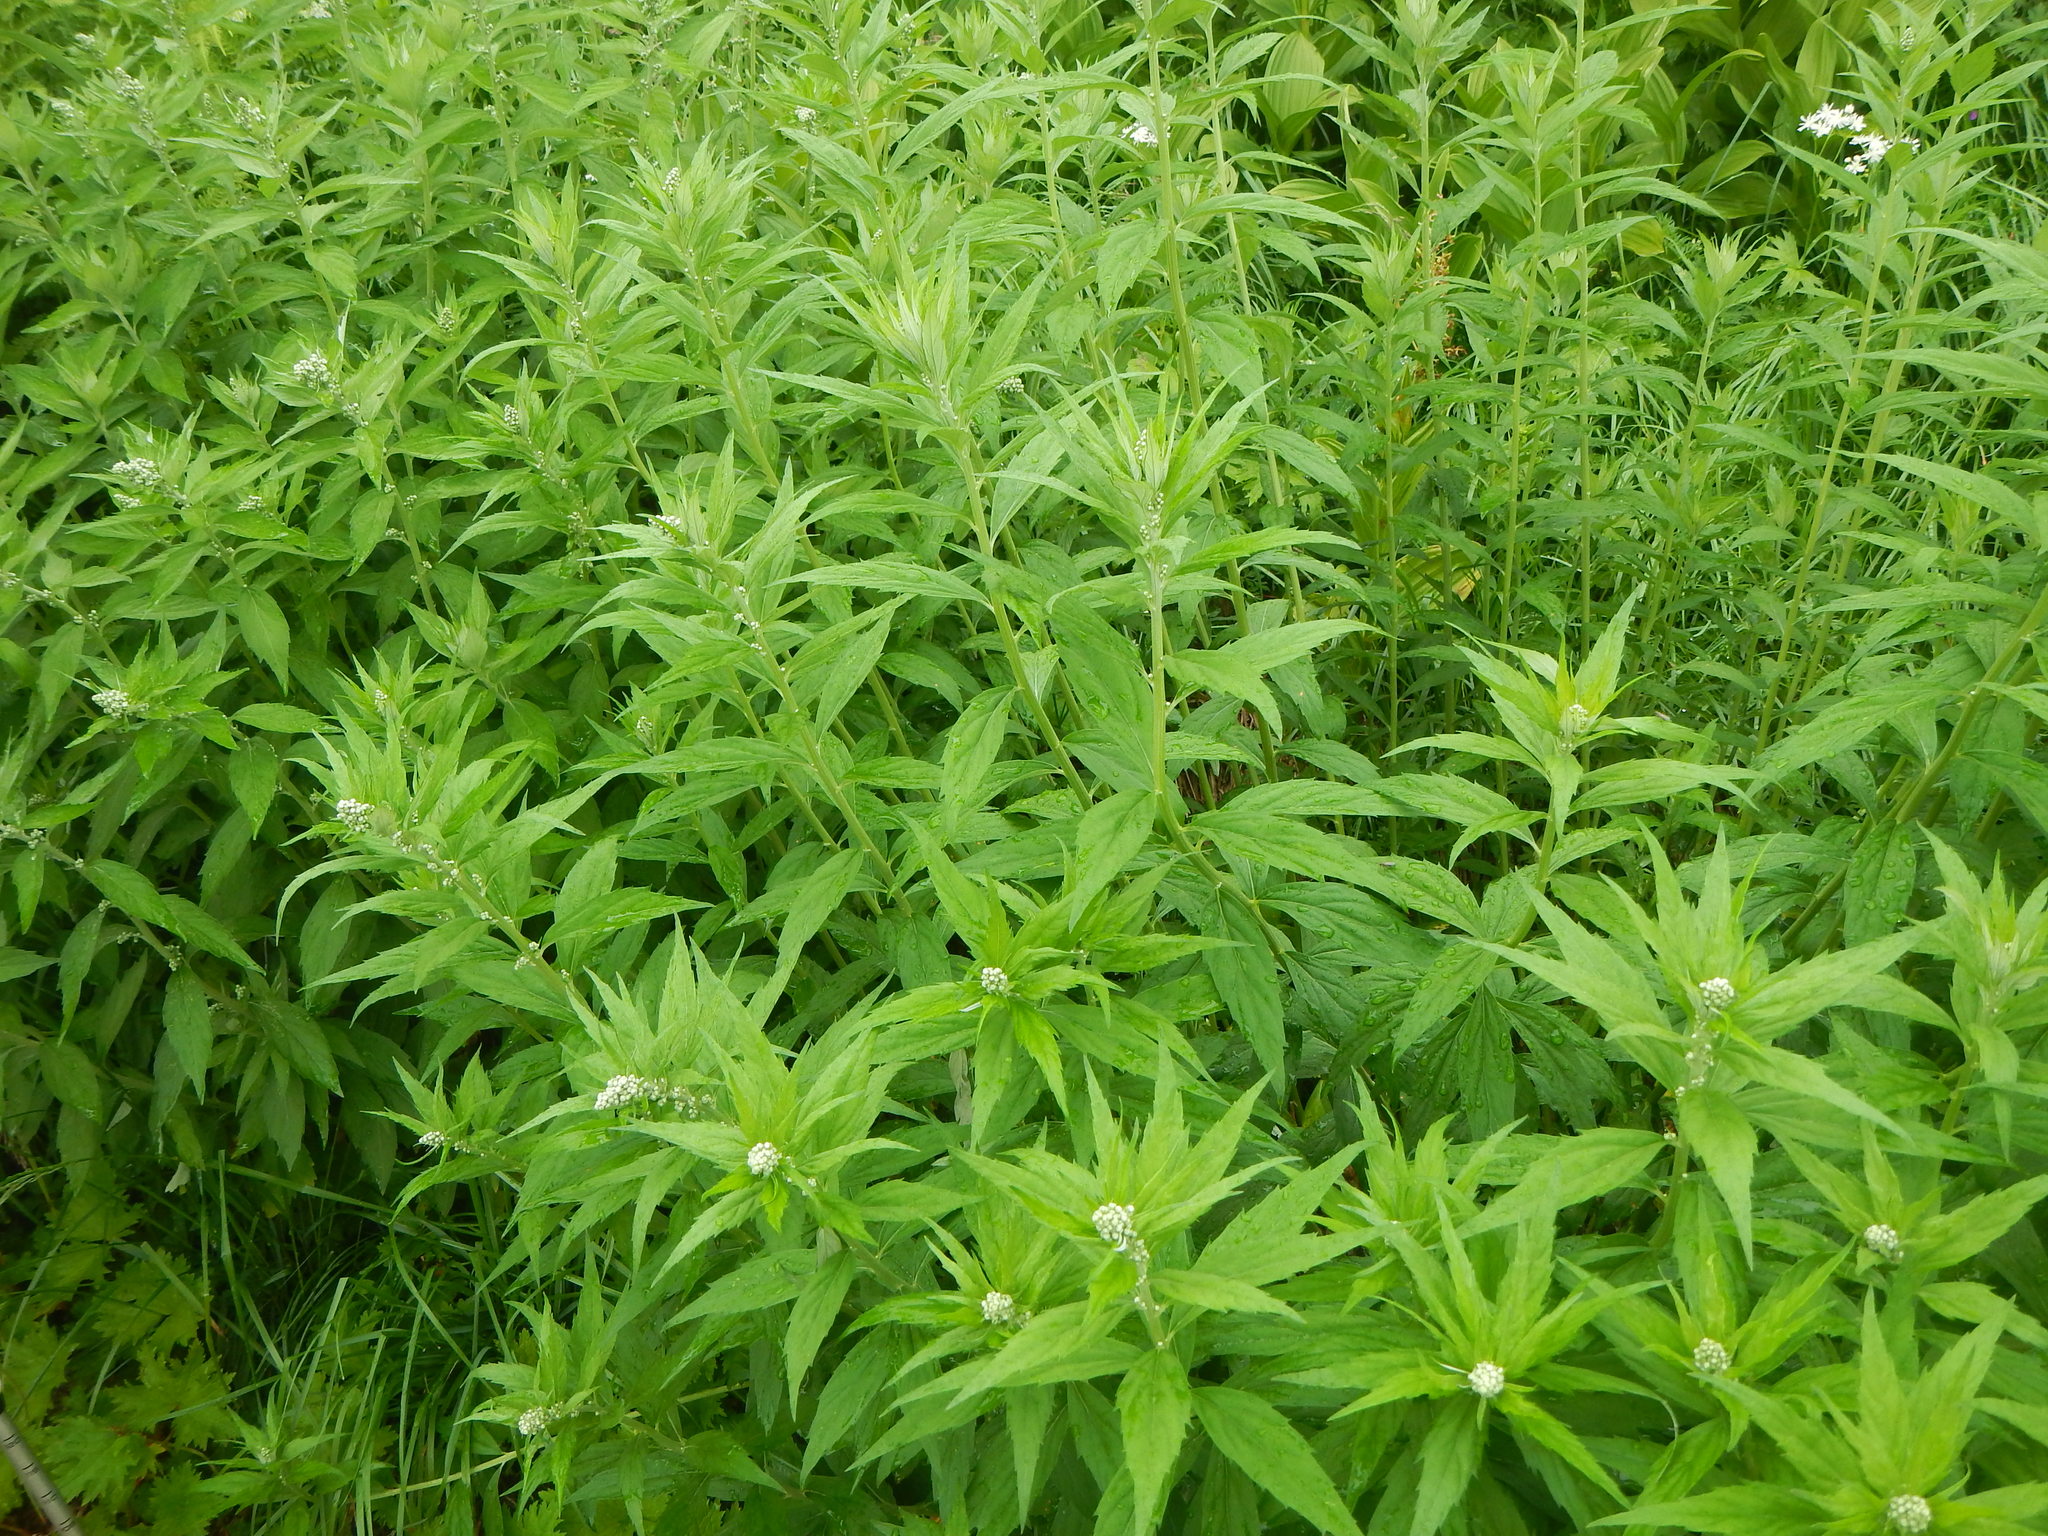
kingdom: Plantae
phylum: Tracheophyta
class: Magnoliopsida
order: Asterales
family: Asteraceae
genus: Artemisia
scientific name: Artemisia monophylla
